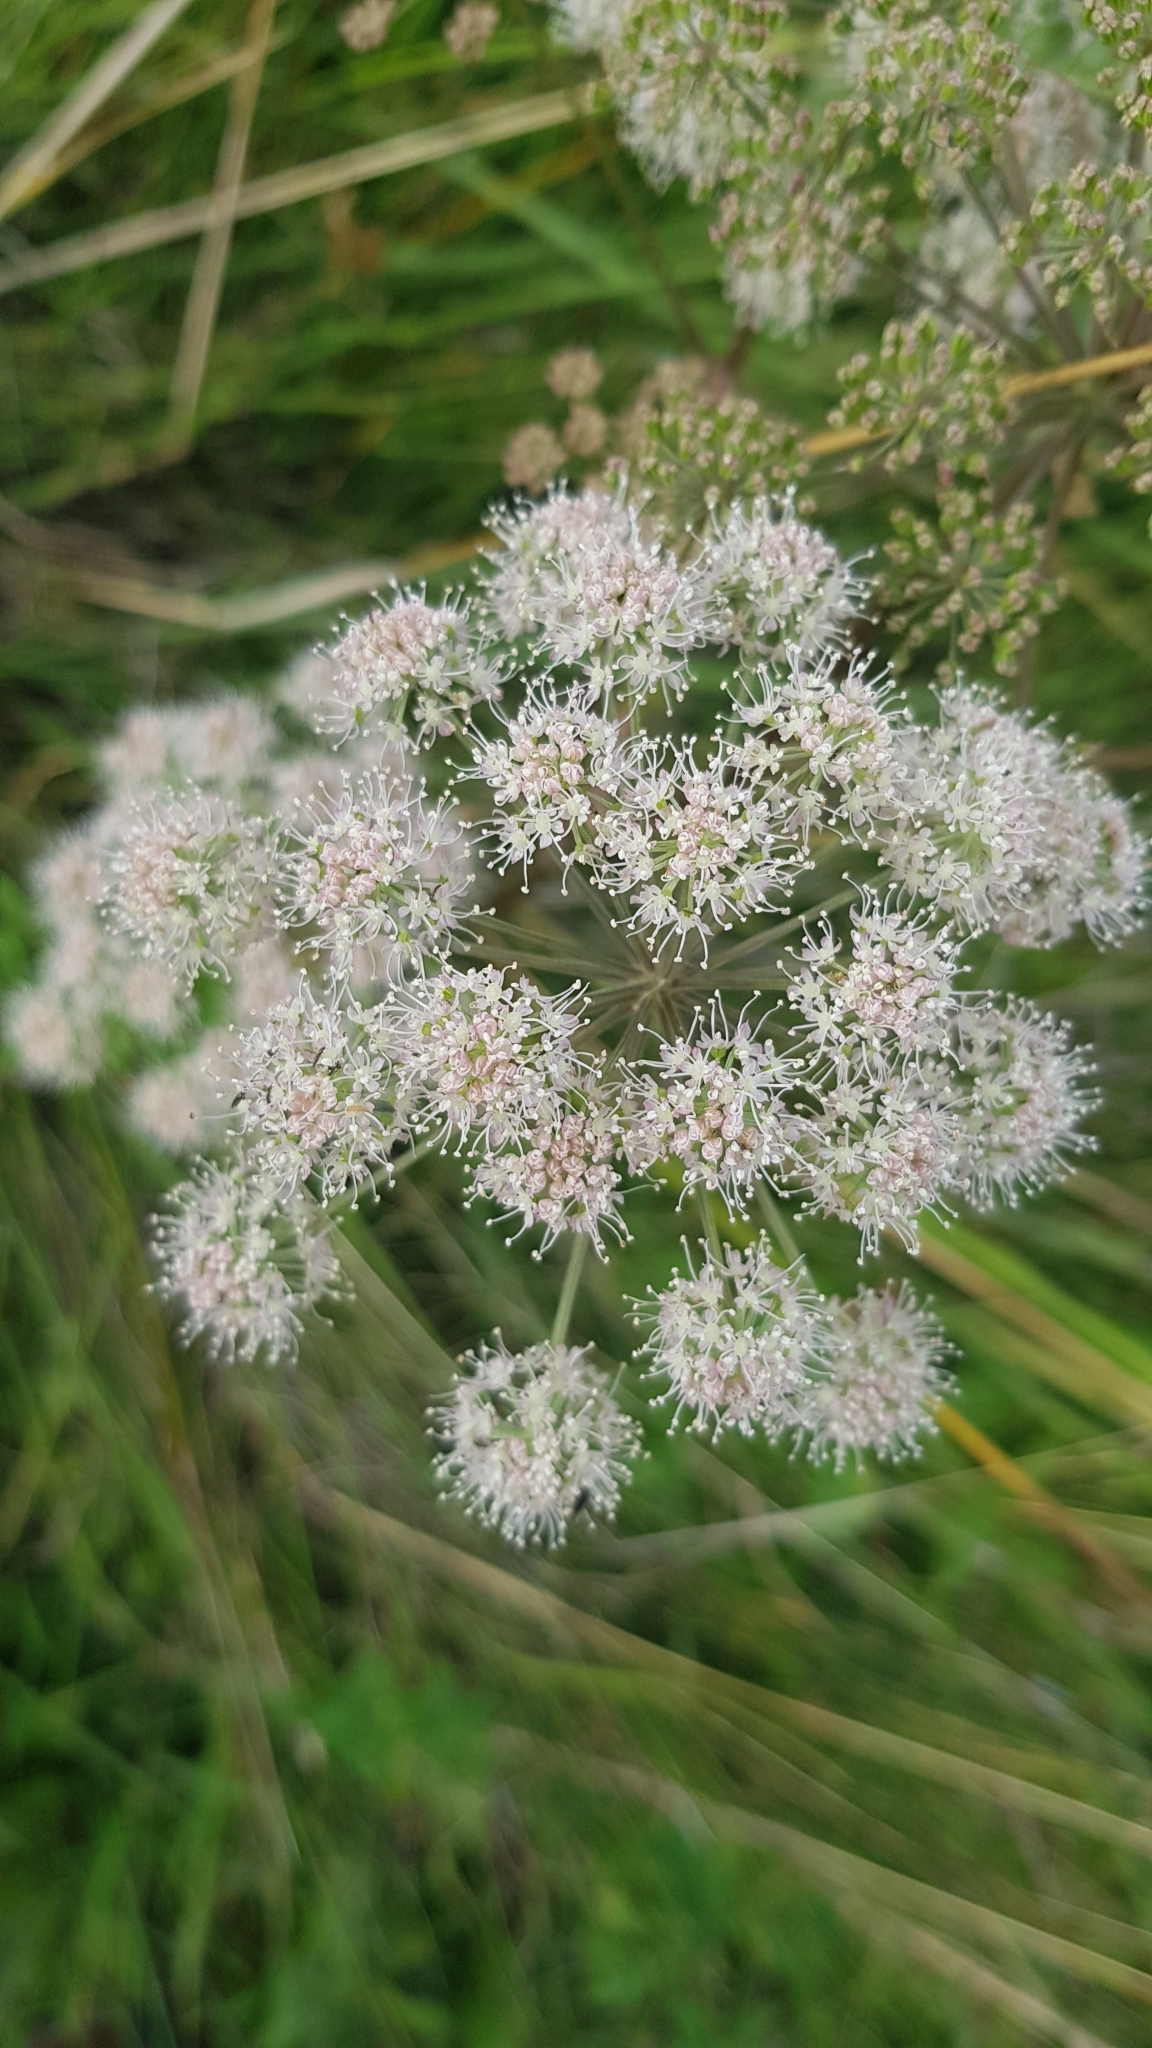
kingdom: Plantae
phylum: Tracheophyta
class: Magnoliopsida
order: Apiales
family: Apiaceae
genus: Angelica
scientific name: Angelica sylvestris
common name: Wild angelica
